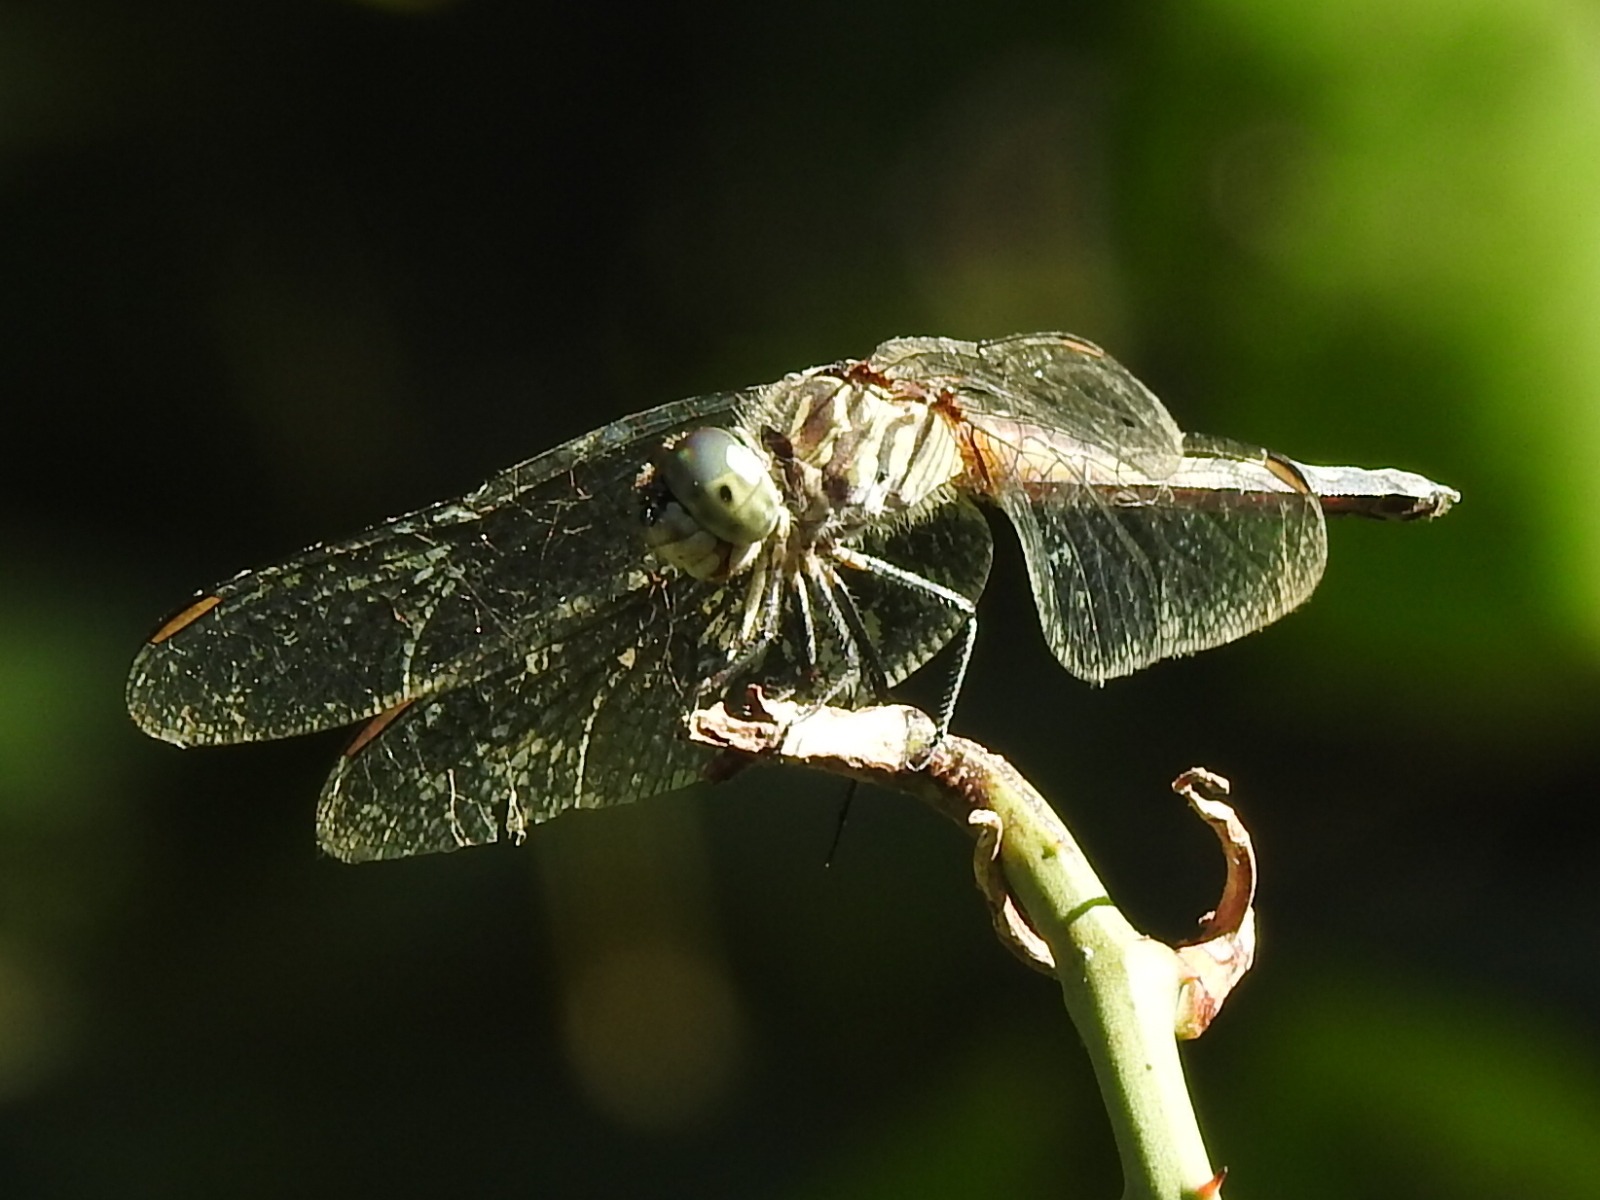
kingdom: Animalia
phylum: Arthropoda
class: Insecta
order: Odonata
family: Libellulidae
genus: Pachydiplax
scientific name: Pachydiplax longipennis
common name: Blue dasher
